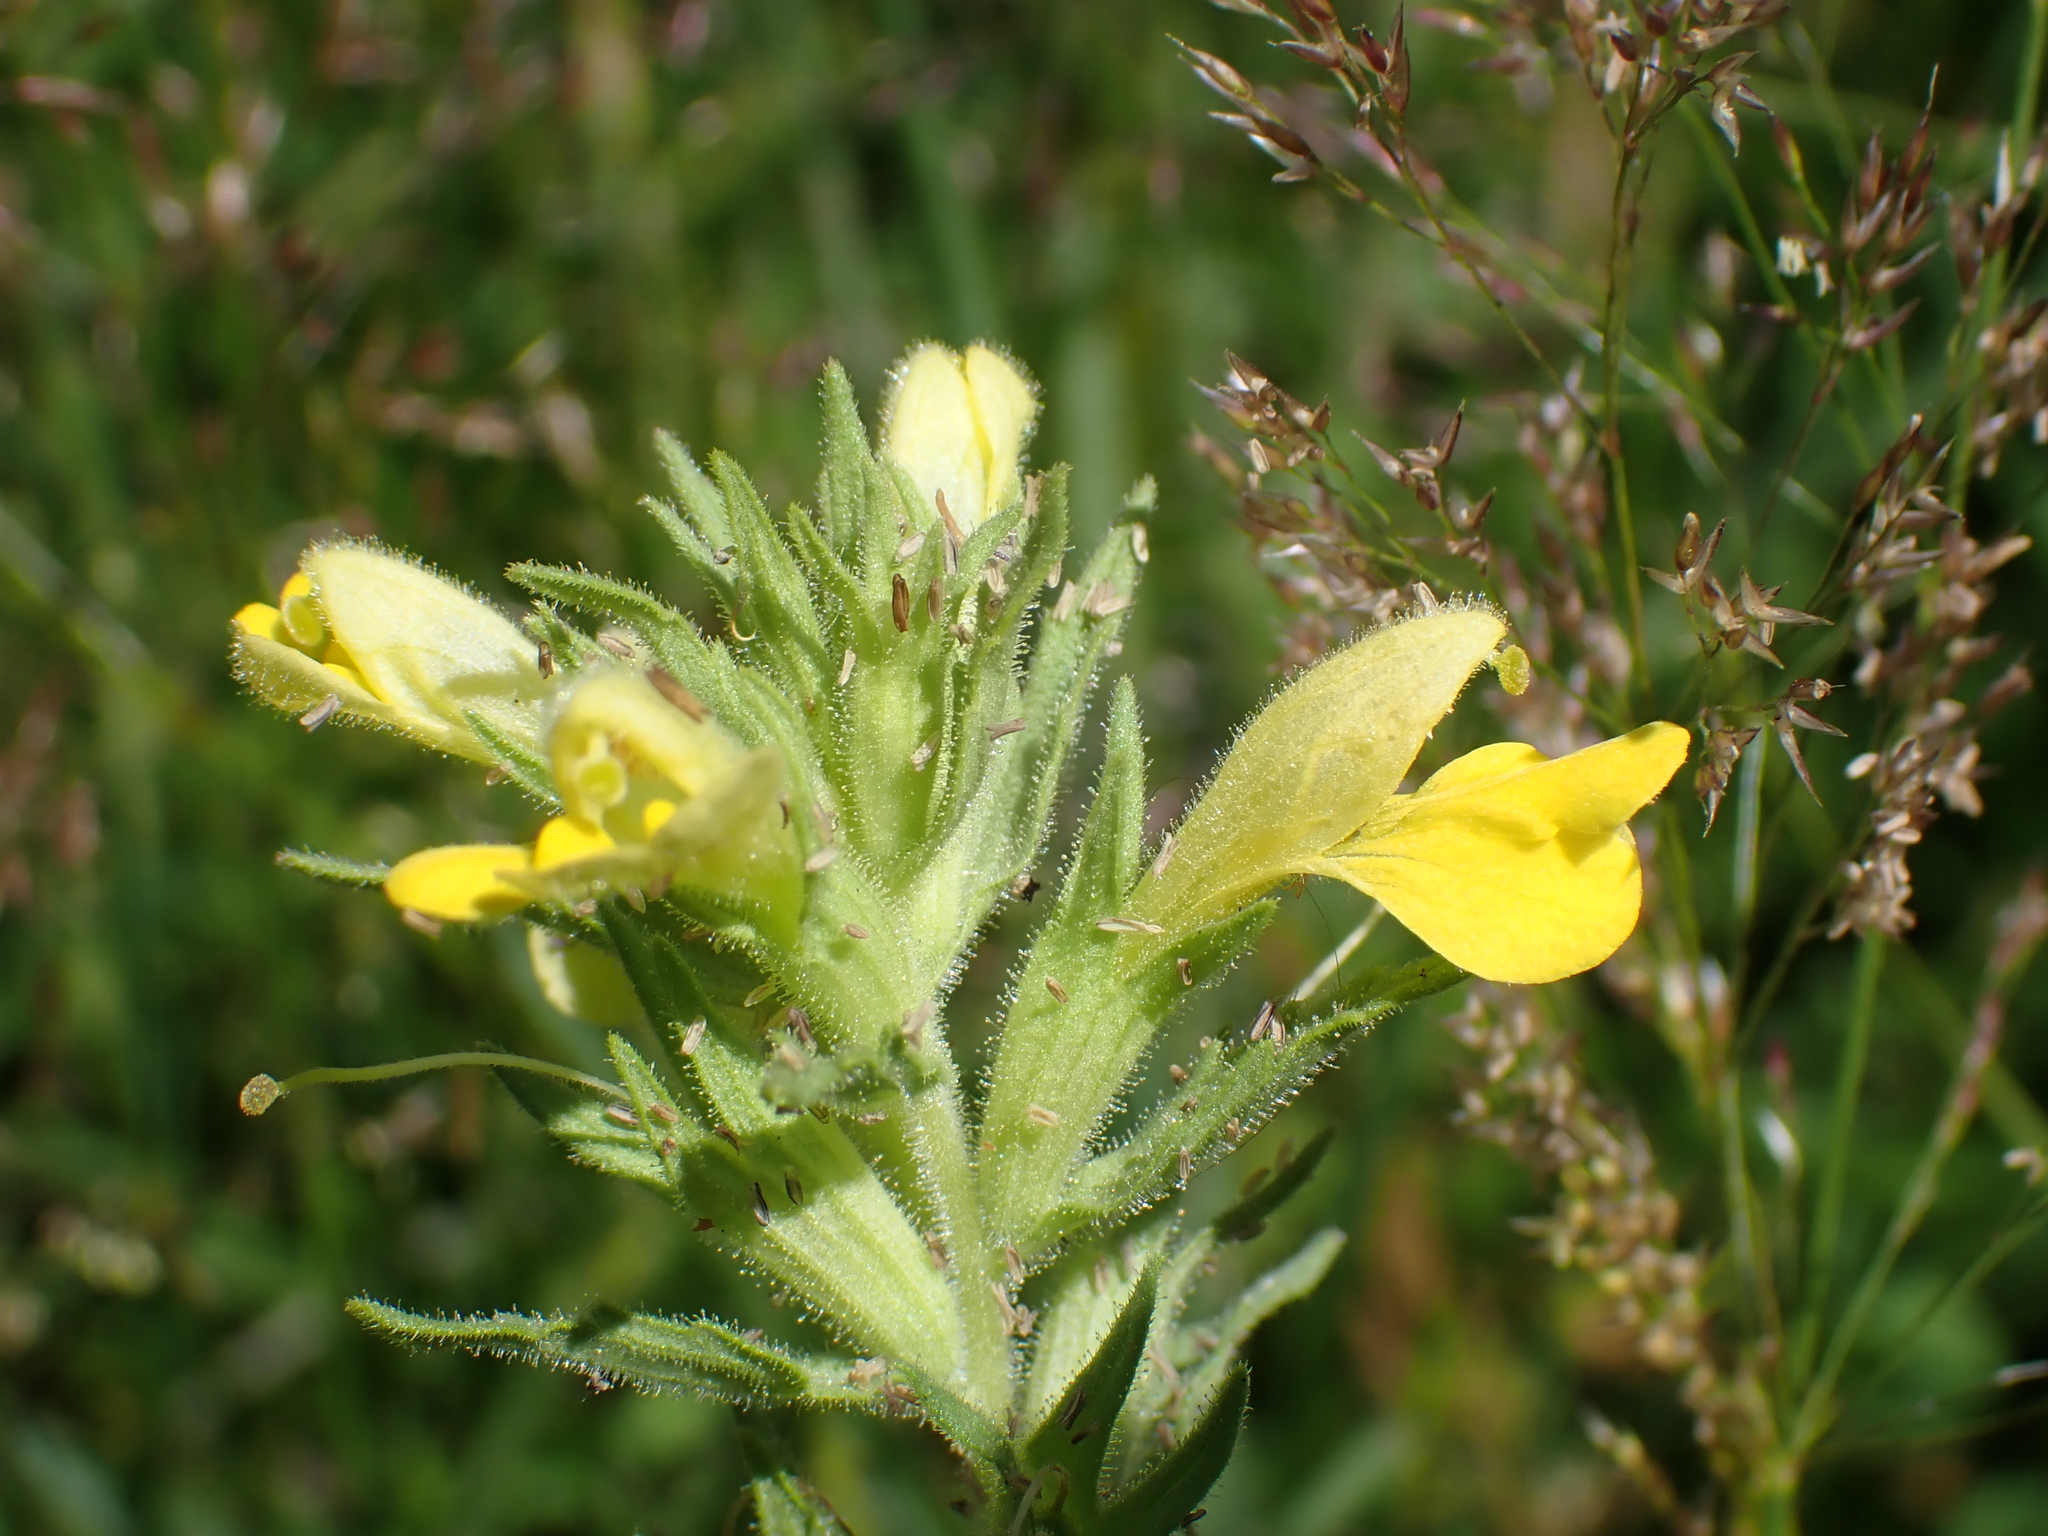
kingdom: Plantae
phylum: Tracheophyta
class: Magnoliopsida
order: Lamiales
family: Orobanchaceae
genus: Bellardia
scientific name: Bellardia viscosa
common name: Sticky parentucellia
